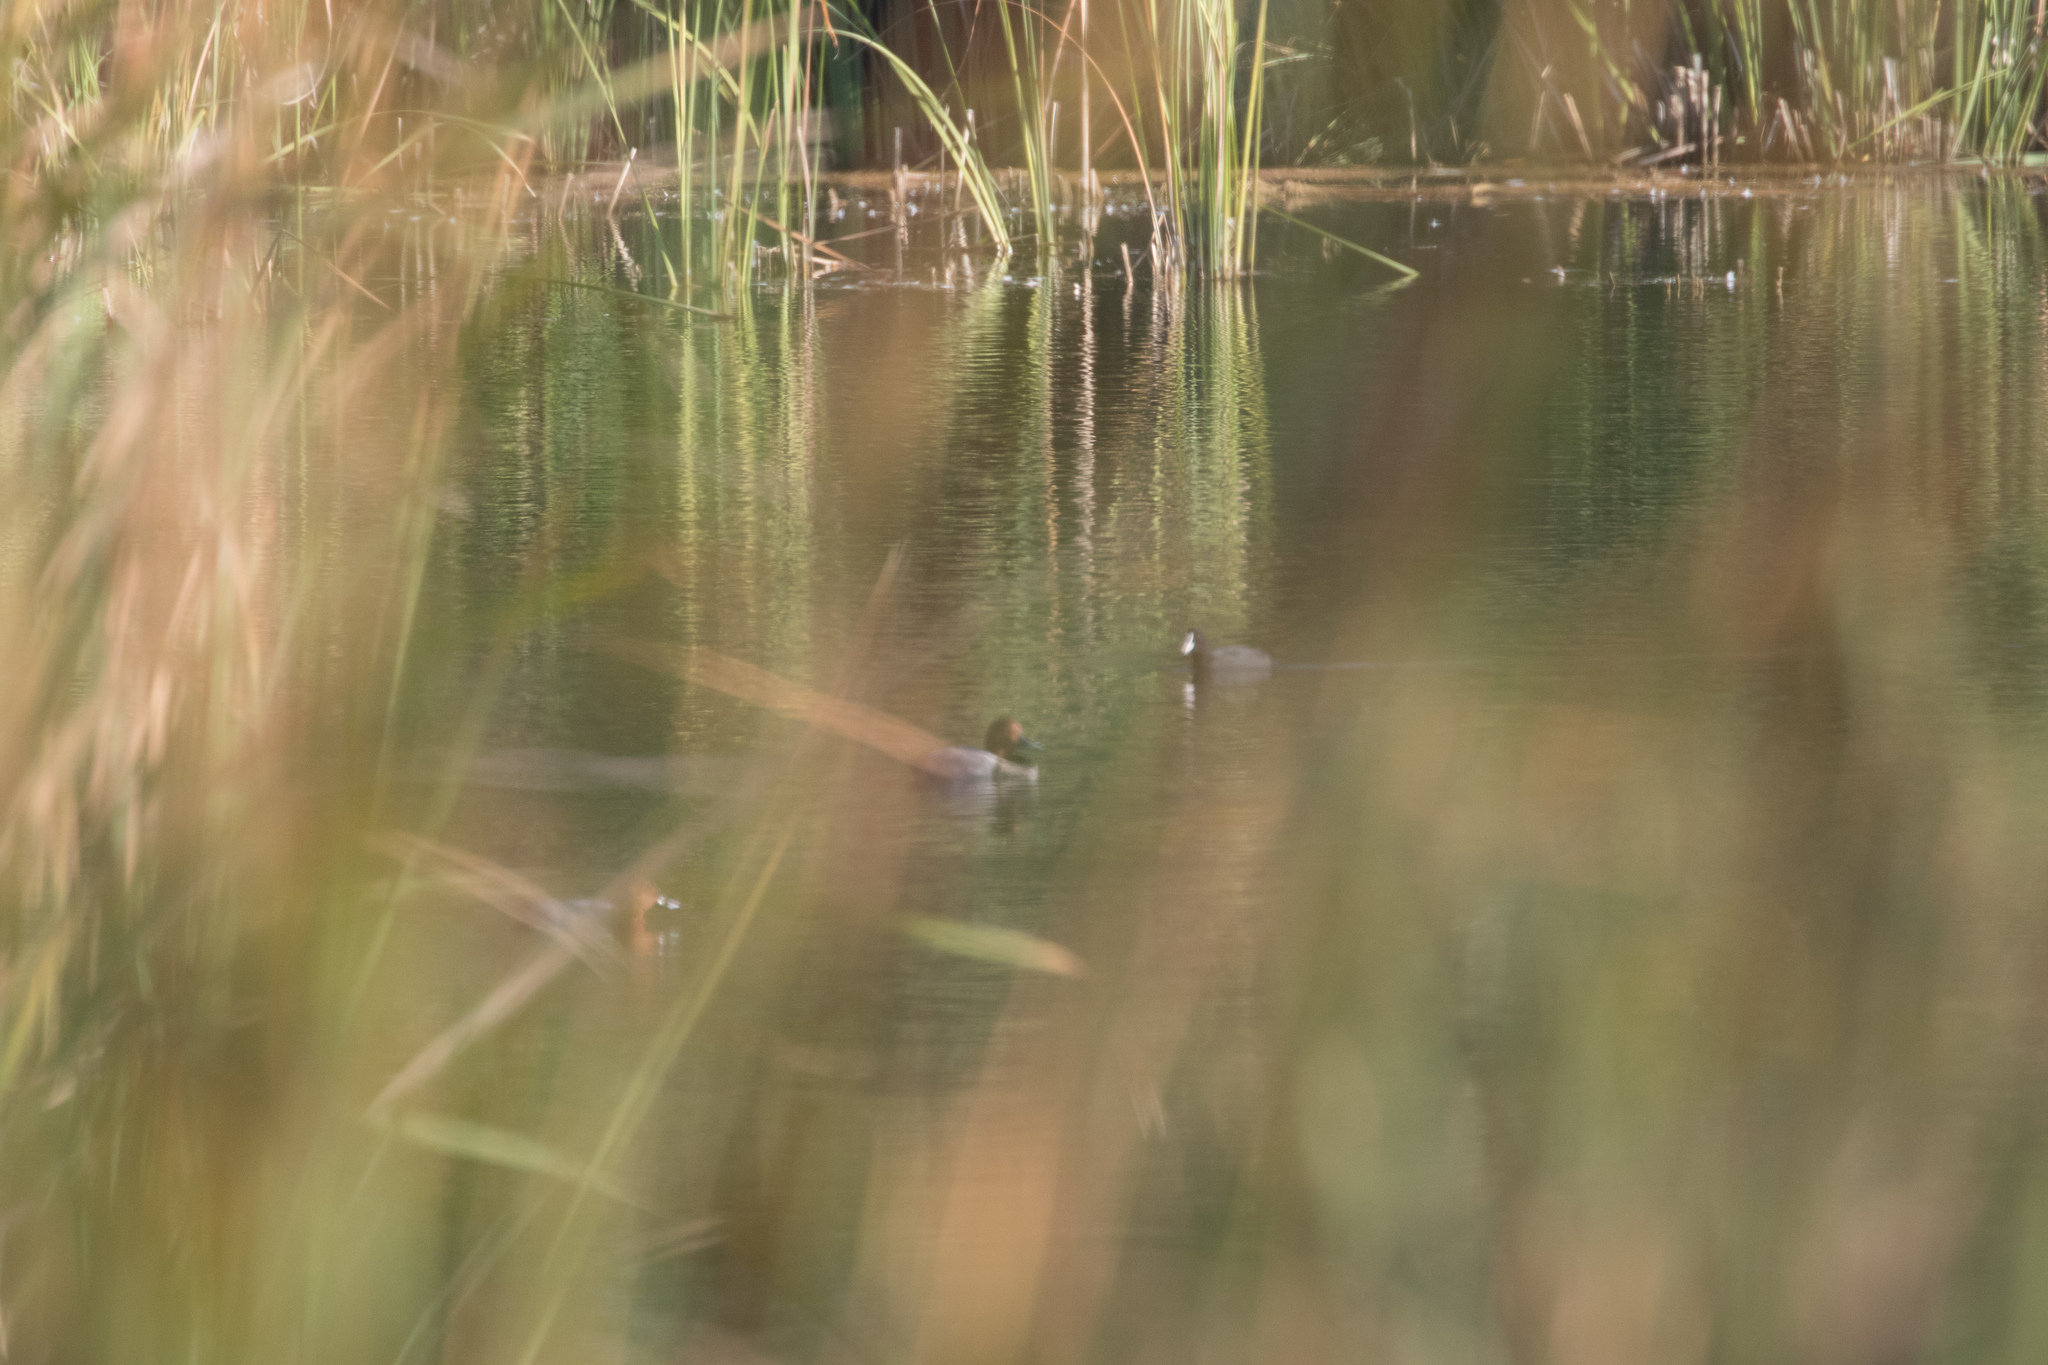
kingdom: Animalia
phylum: Chordata
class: Aves
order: Anseriformes
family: Anatidae
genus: Aythya
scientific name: Aythya ferina
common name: Common pochard
